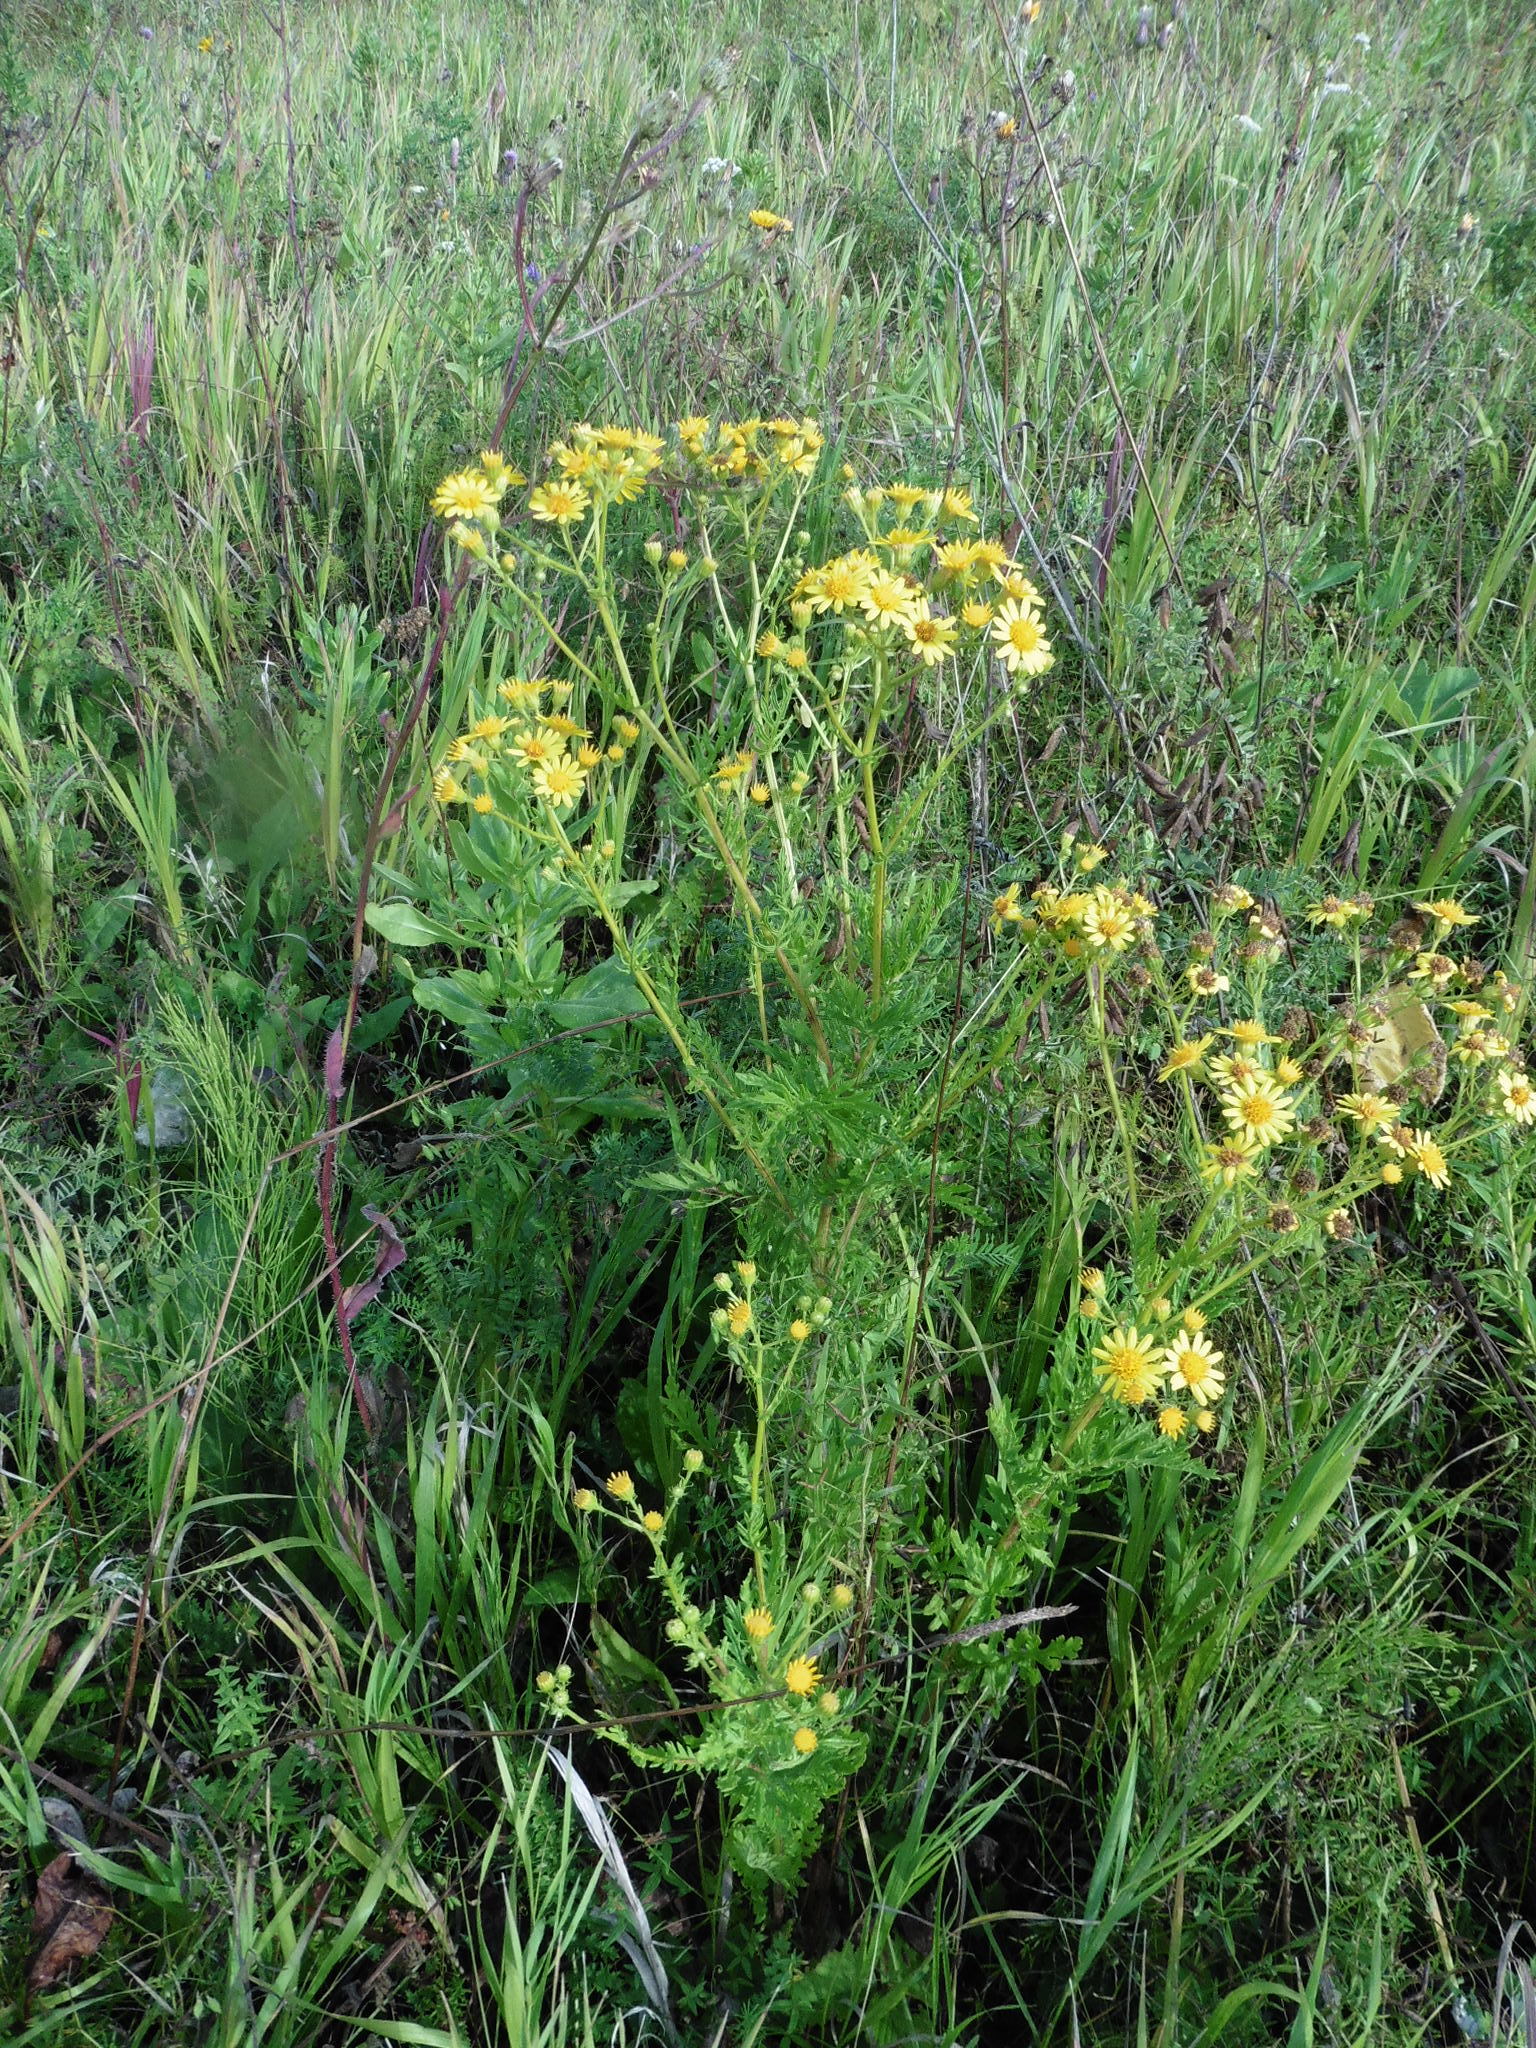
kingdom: Plantae
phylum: Tracheophyta
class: Magnoliopsida
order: Asterales
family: Asteraceae
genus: Jacobaea
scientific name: Jacobaea erucifolia
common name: Hoary ragwort
